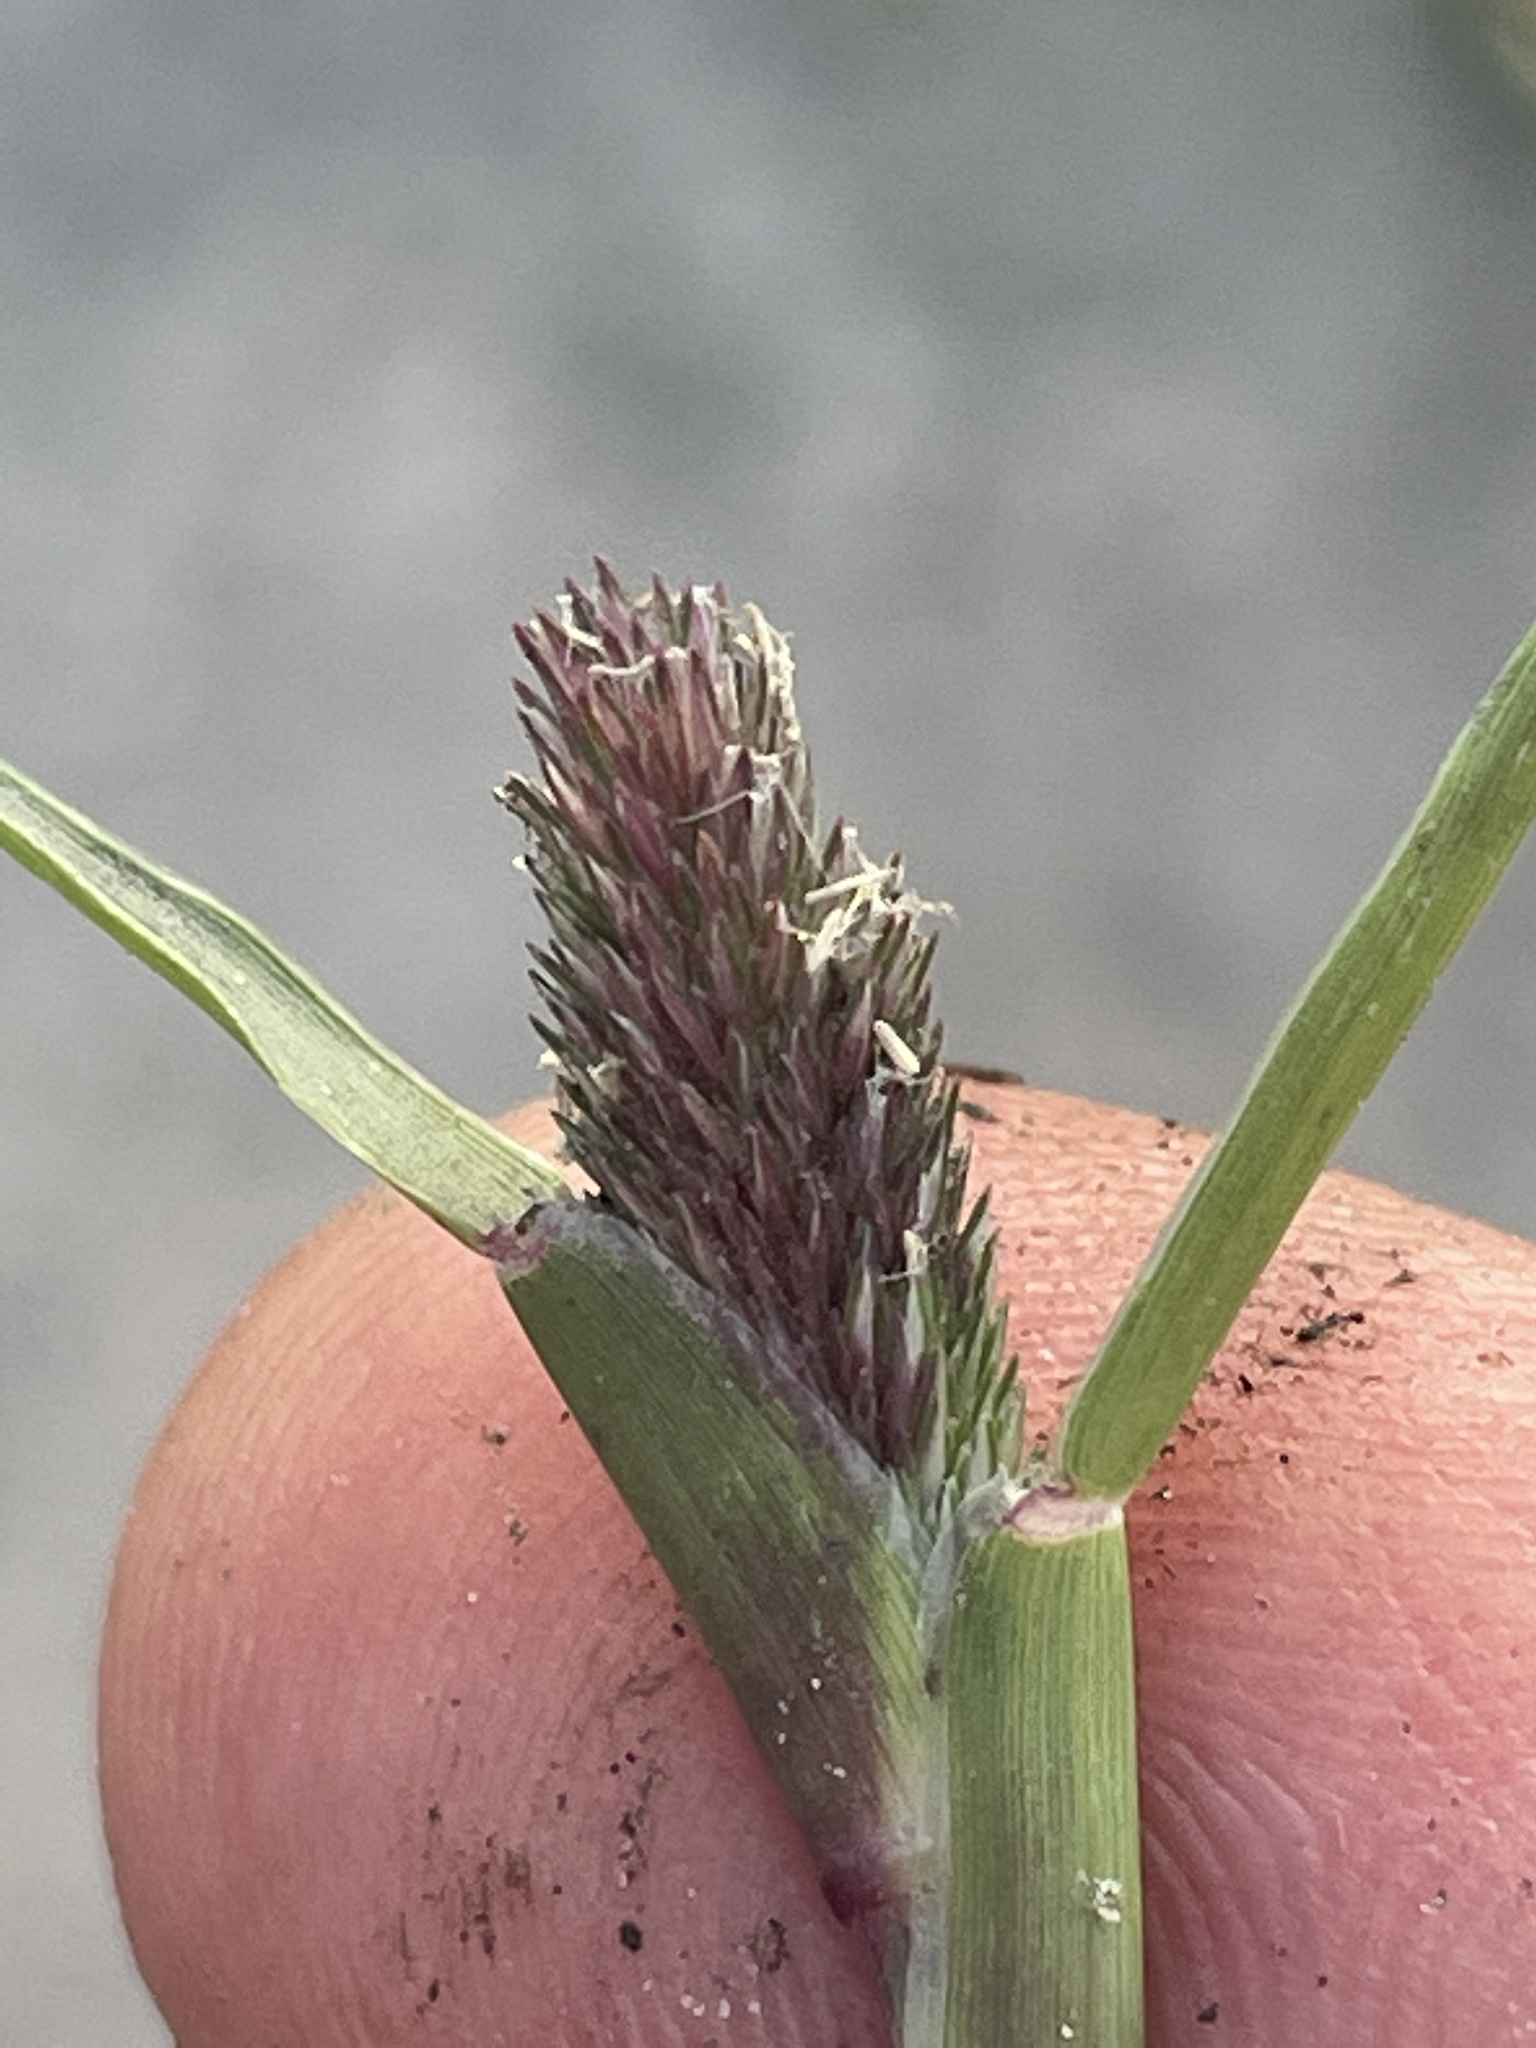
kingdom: Plantae
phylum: Tracheophyta
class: Liliopsida
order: Poales
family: Poaceae
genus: Sporobolus
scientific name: Sporobolus schoenoides
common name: Rush-like timothy
